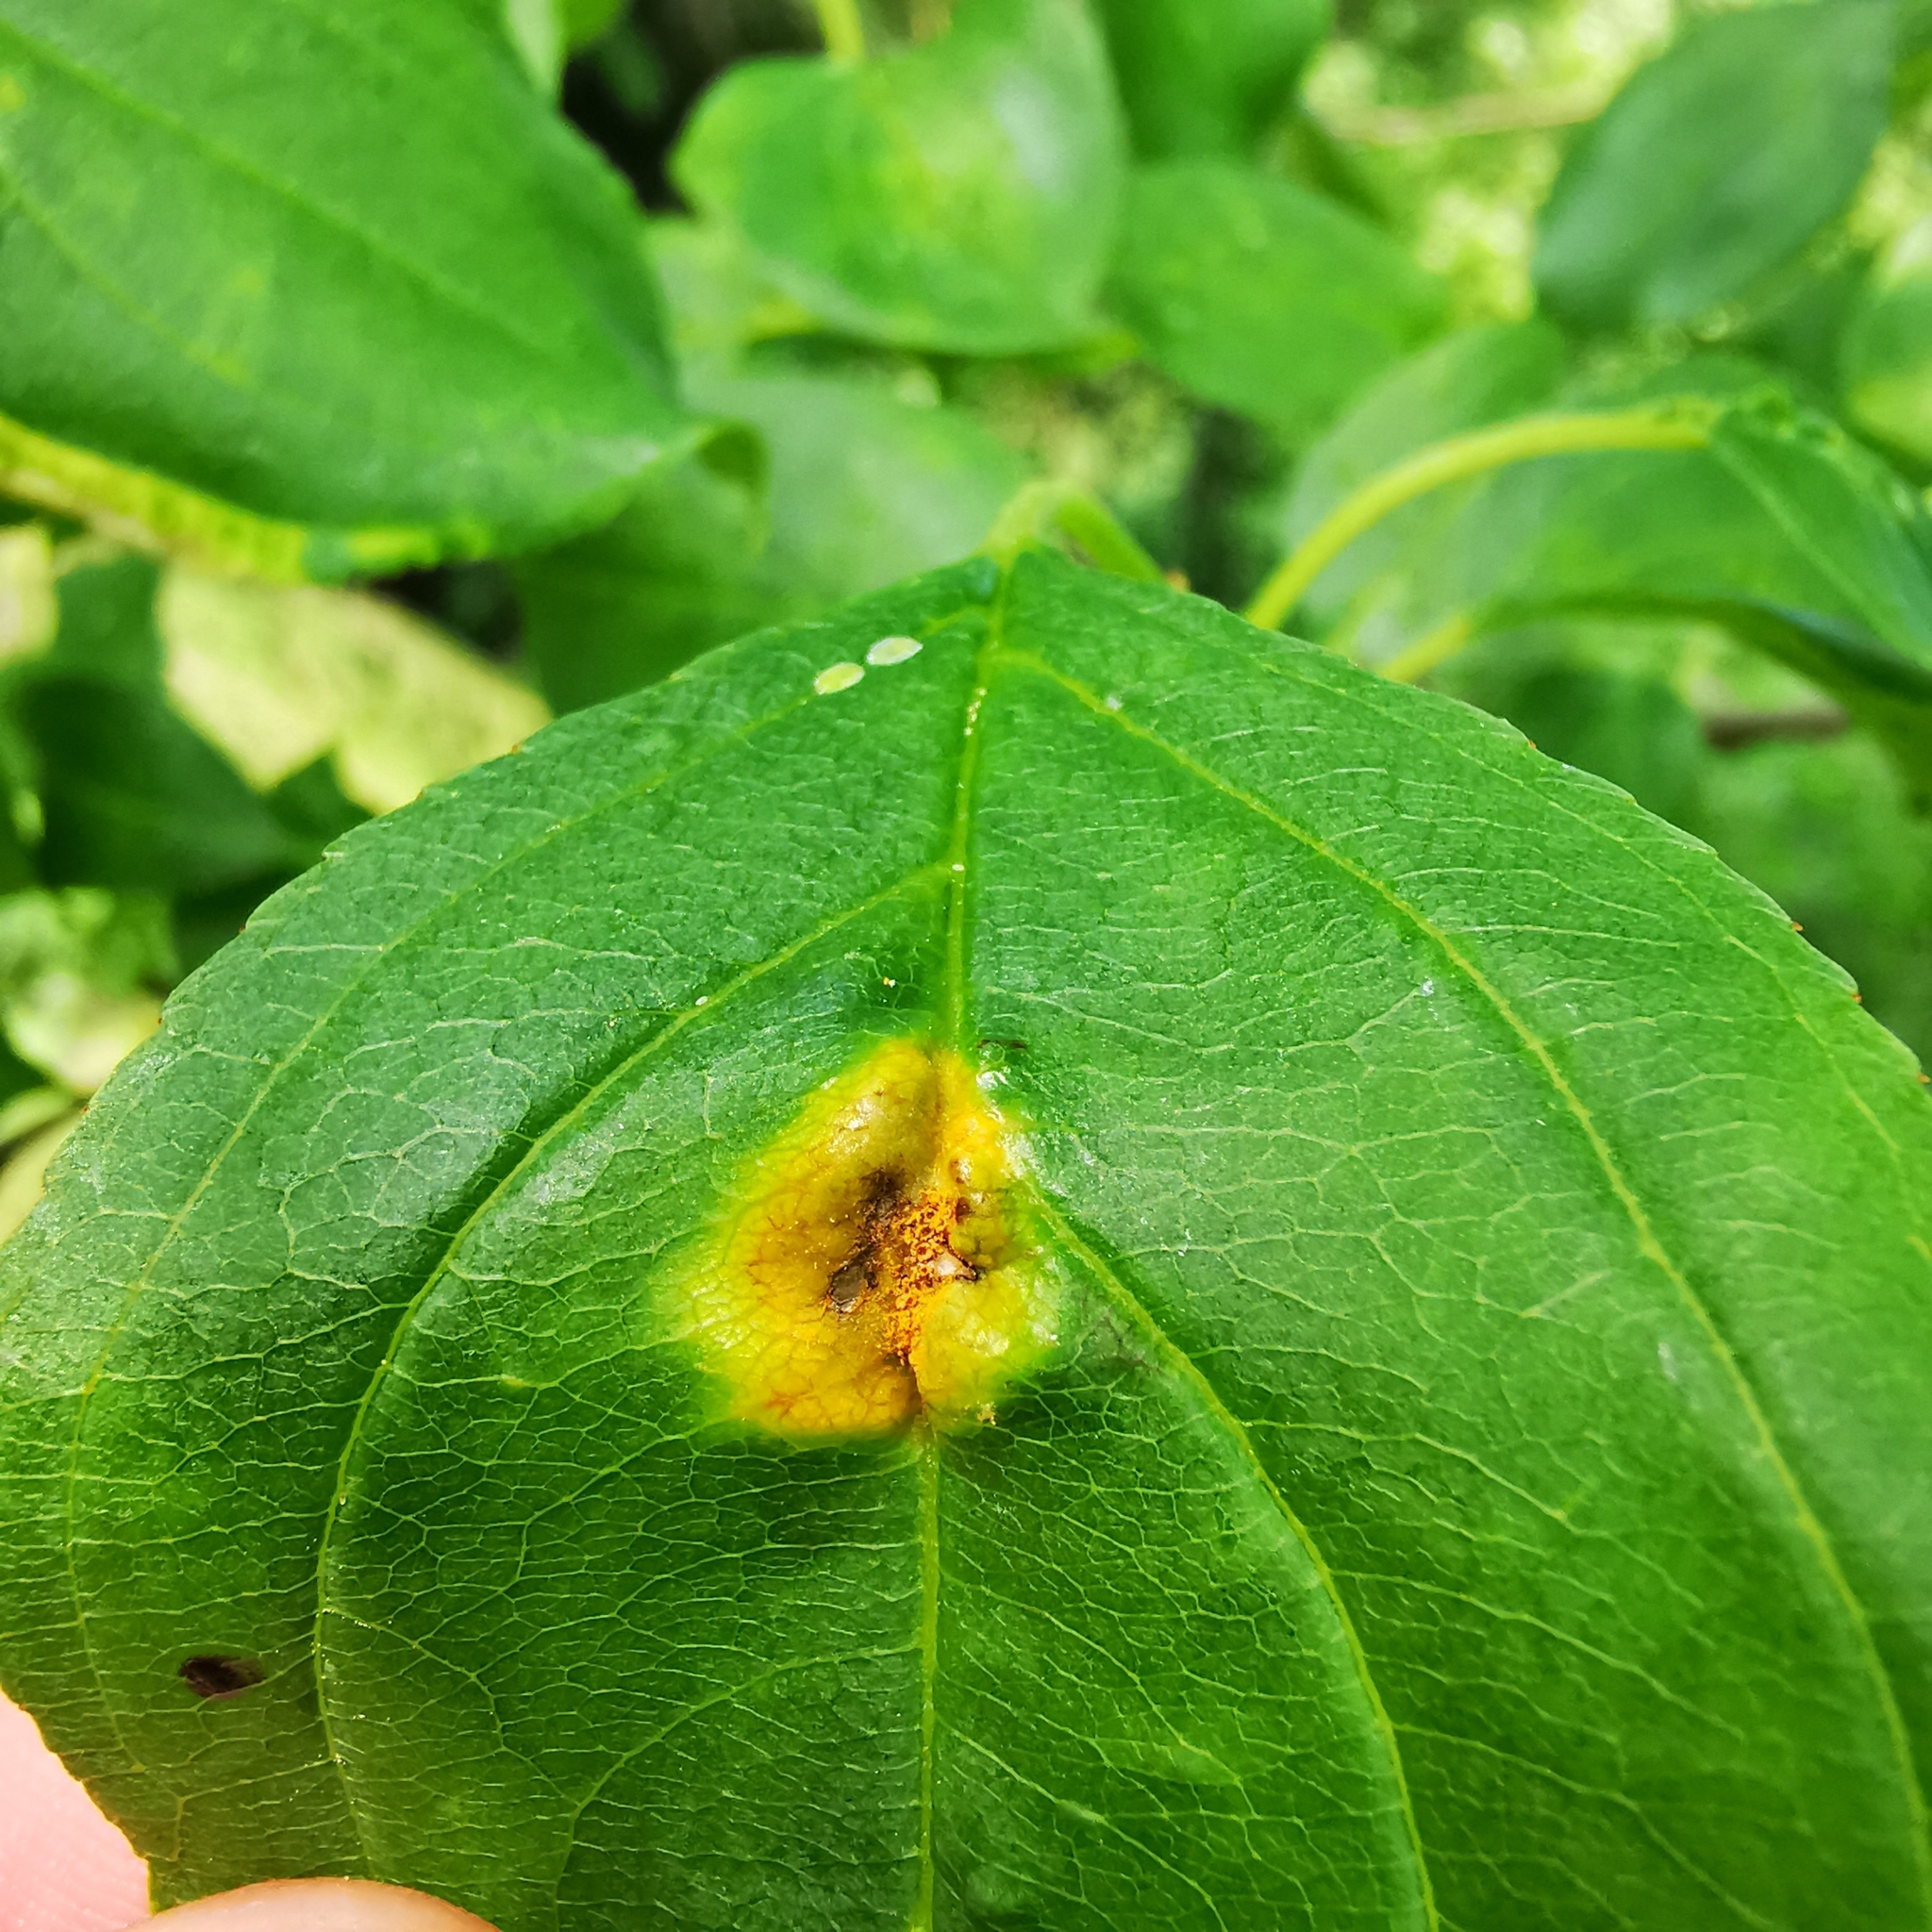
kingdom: Fungi
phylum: Basidiomycota
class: Pucciniomycetes
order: Pucciniales
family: Pucciniaceae
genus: Puccinia
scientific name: Puccinia coronata
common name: Crown rust
